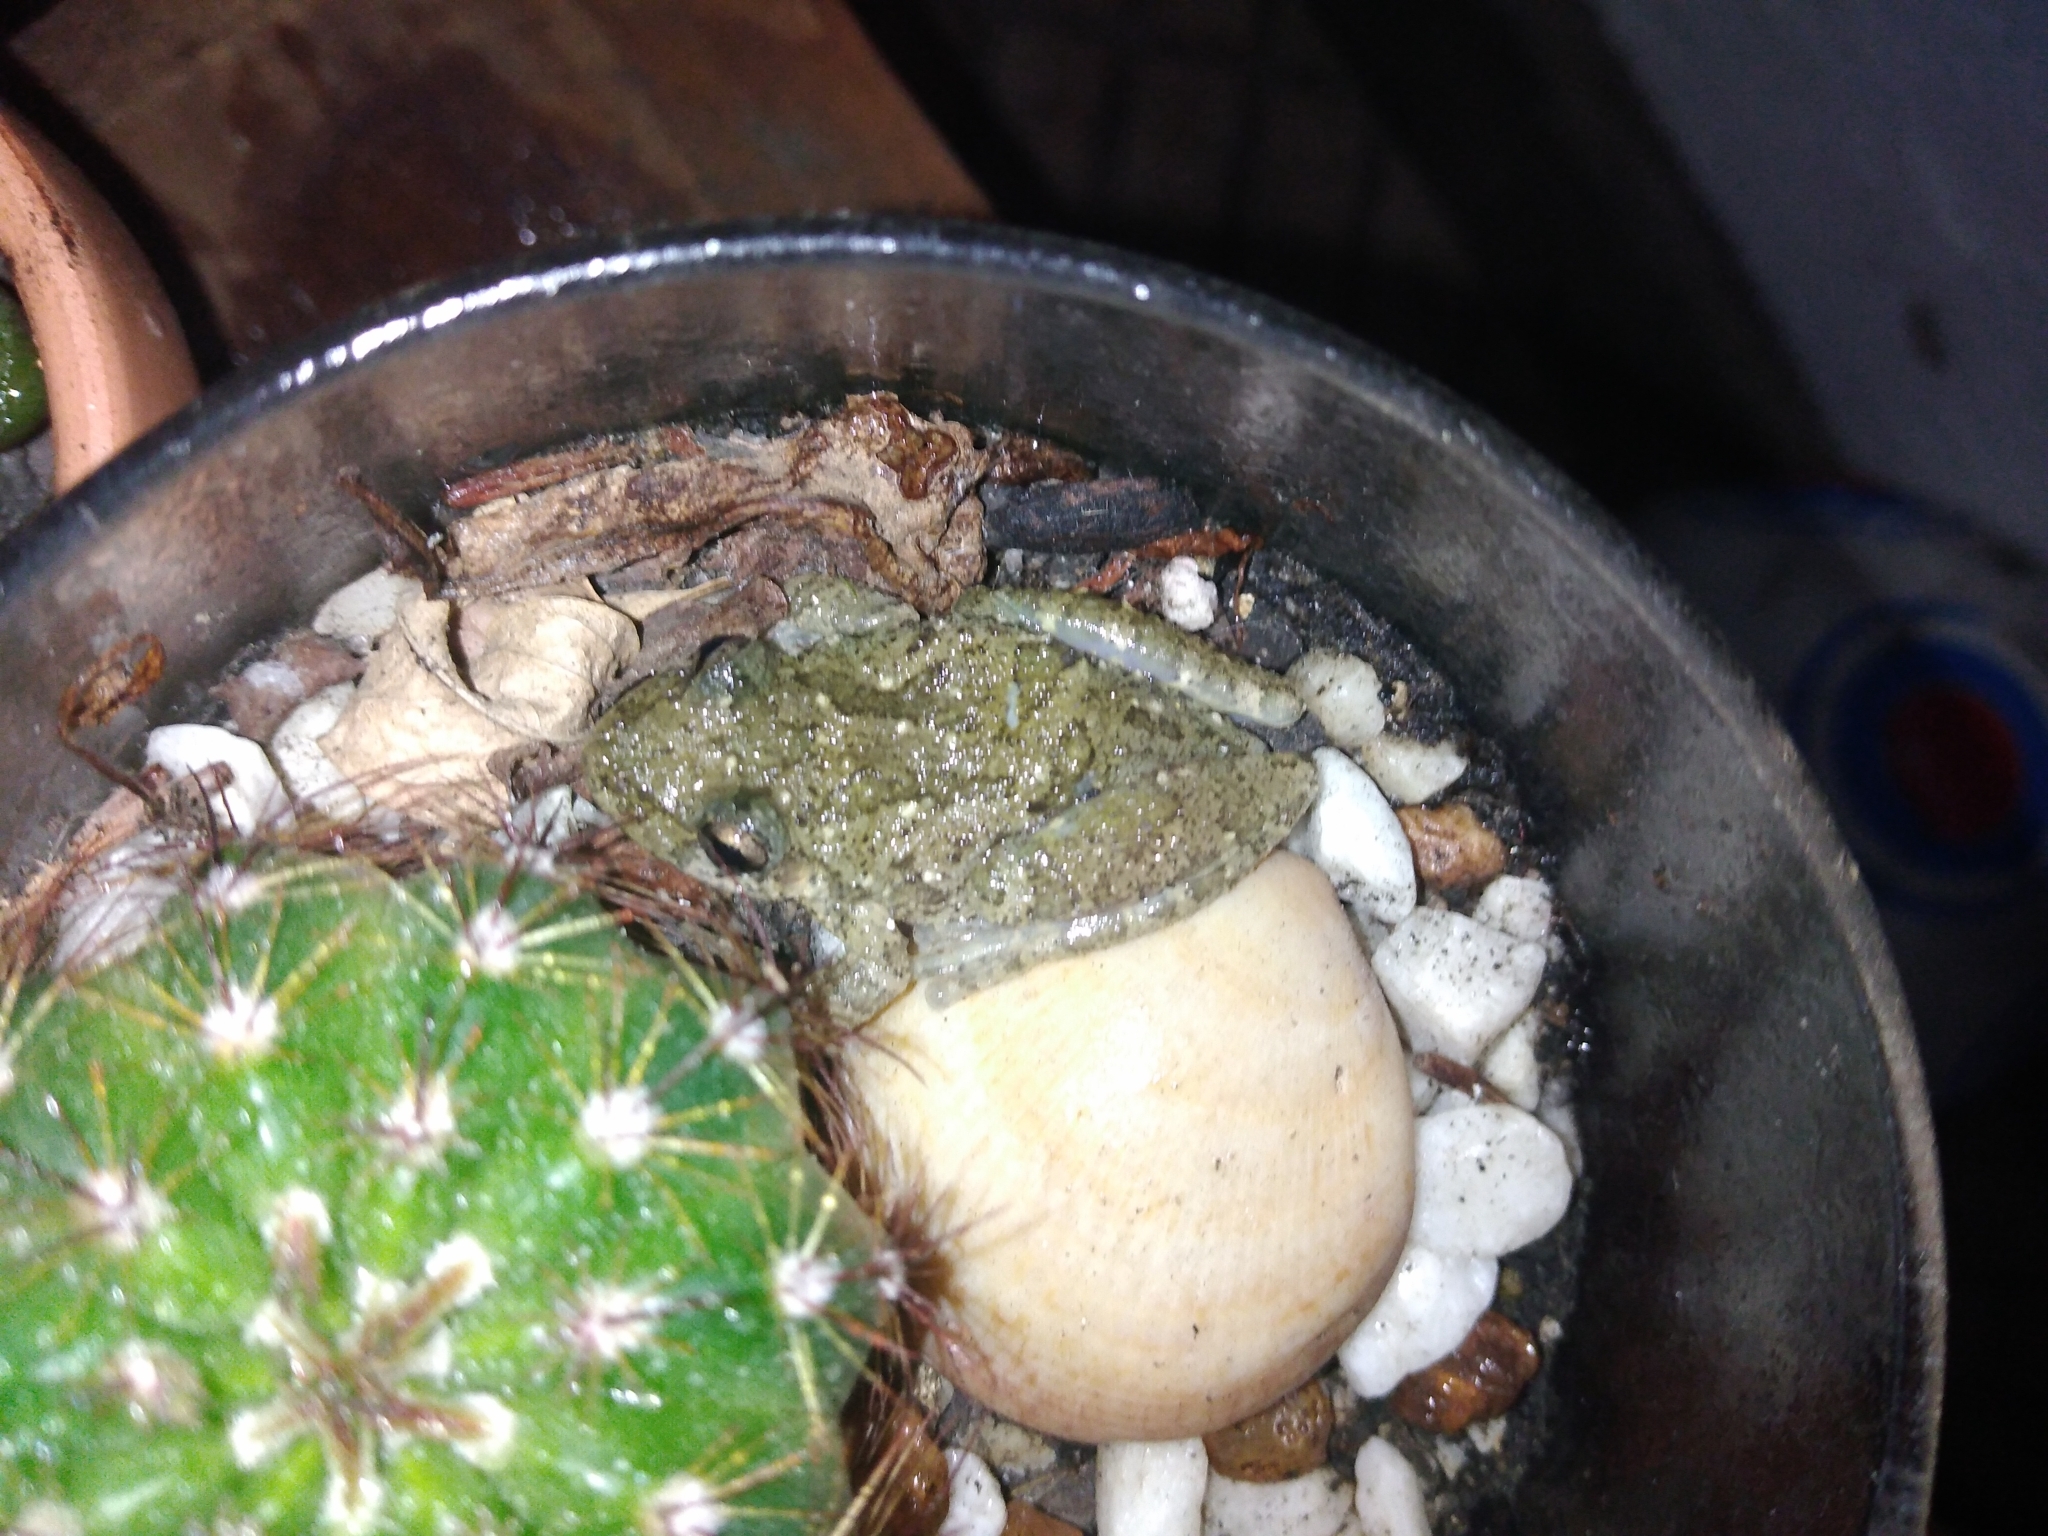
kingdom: Animalia
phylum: Chordata
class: Amphibia
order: Anura
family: Hylidae
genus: Scinax
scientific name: Scinax granulatus
